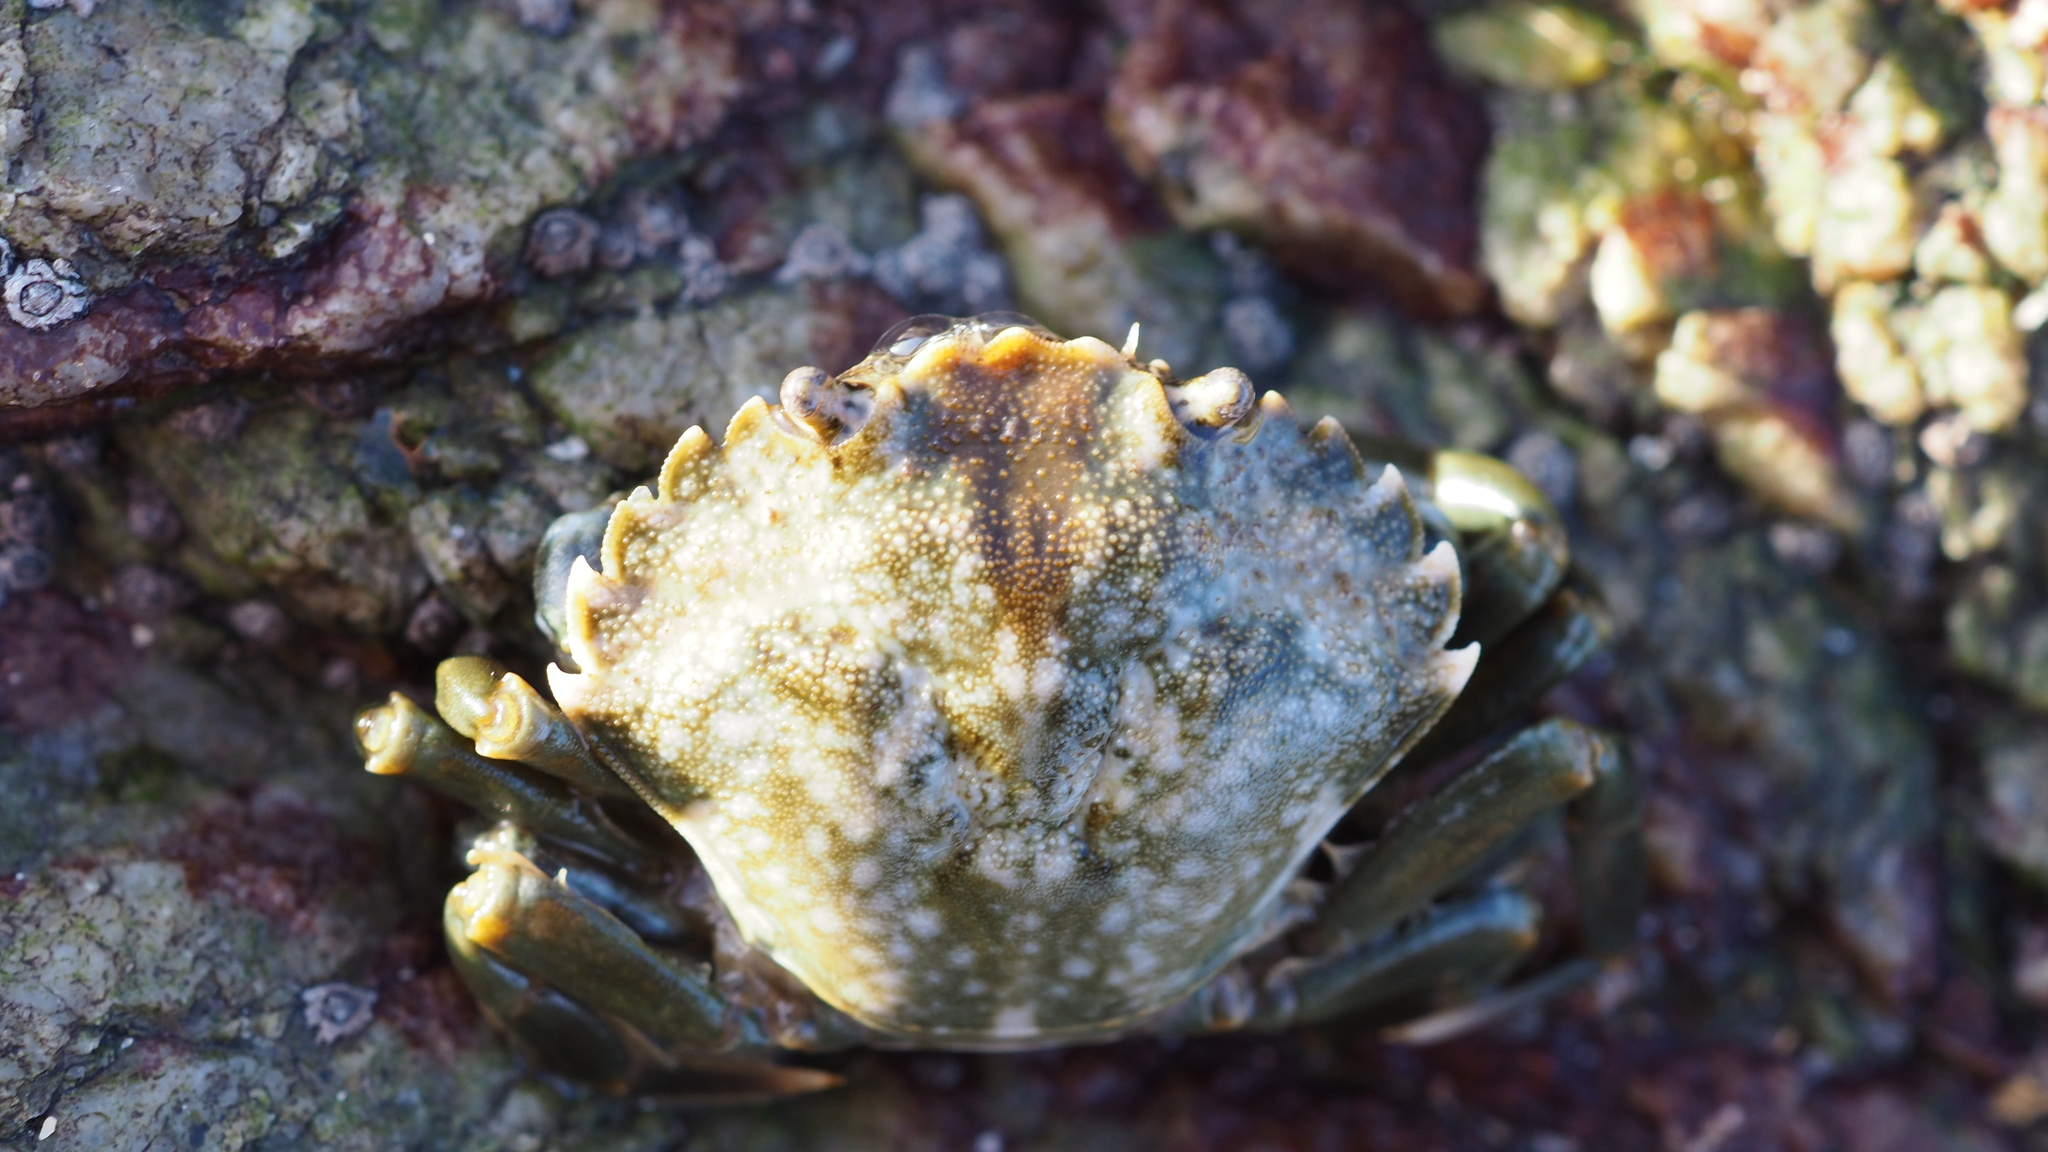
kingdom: Animalia
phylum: Arthropoda
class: Malacostraca
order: Decapoda
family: Carcinidae
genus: Carcinus
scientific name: Carcinus maenas
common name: European green crab
